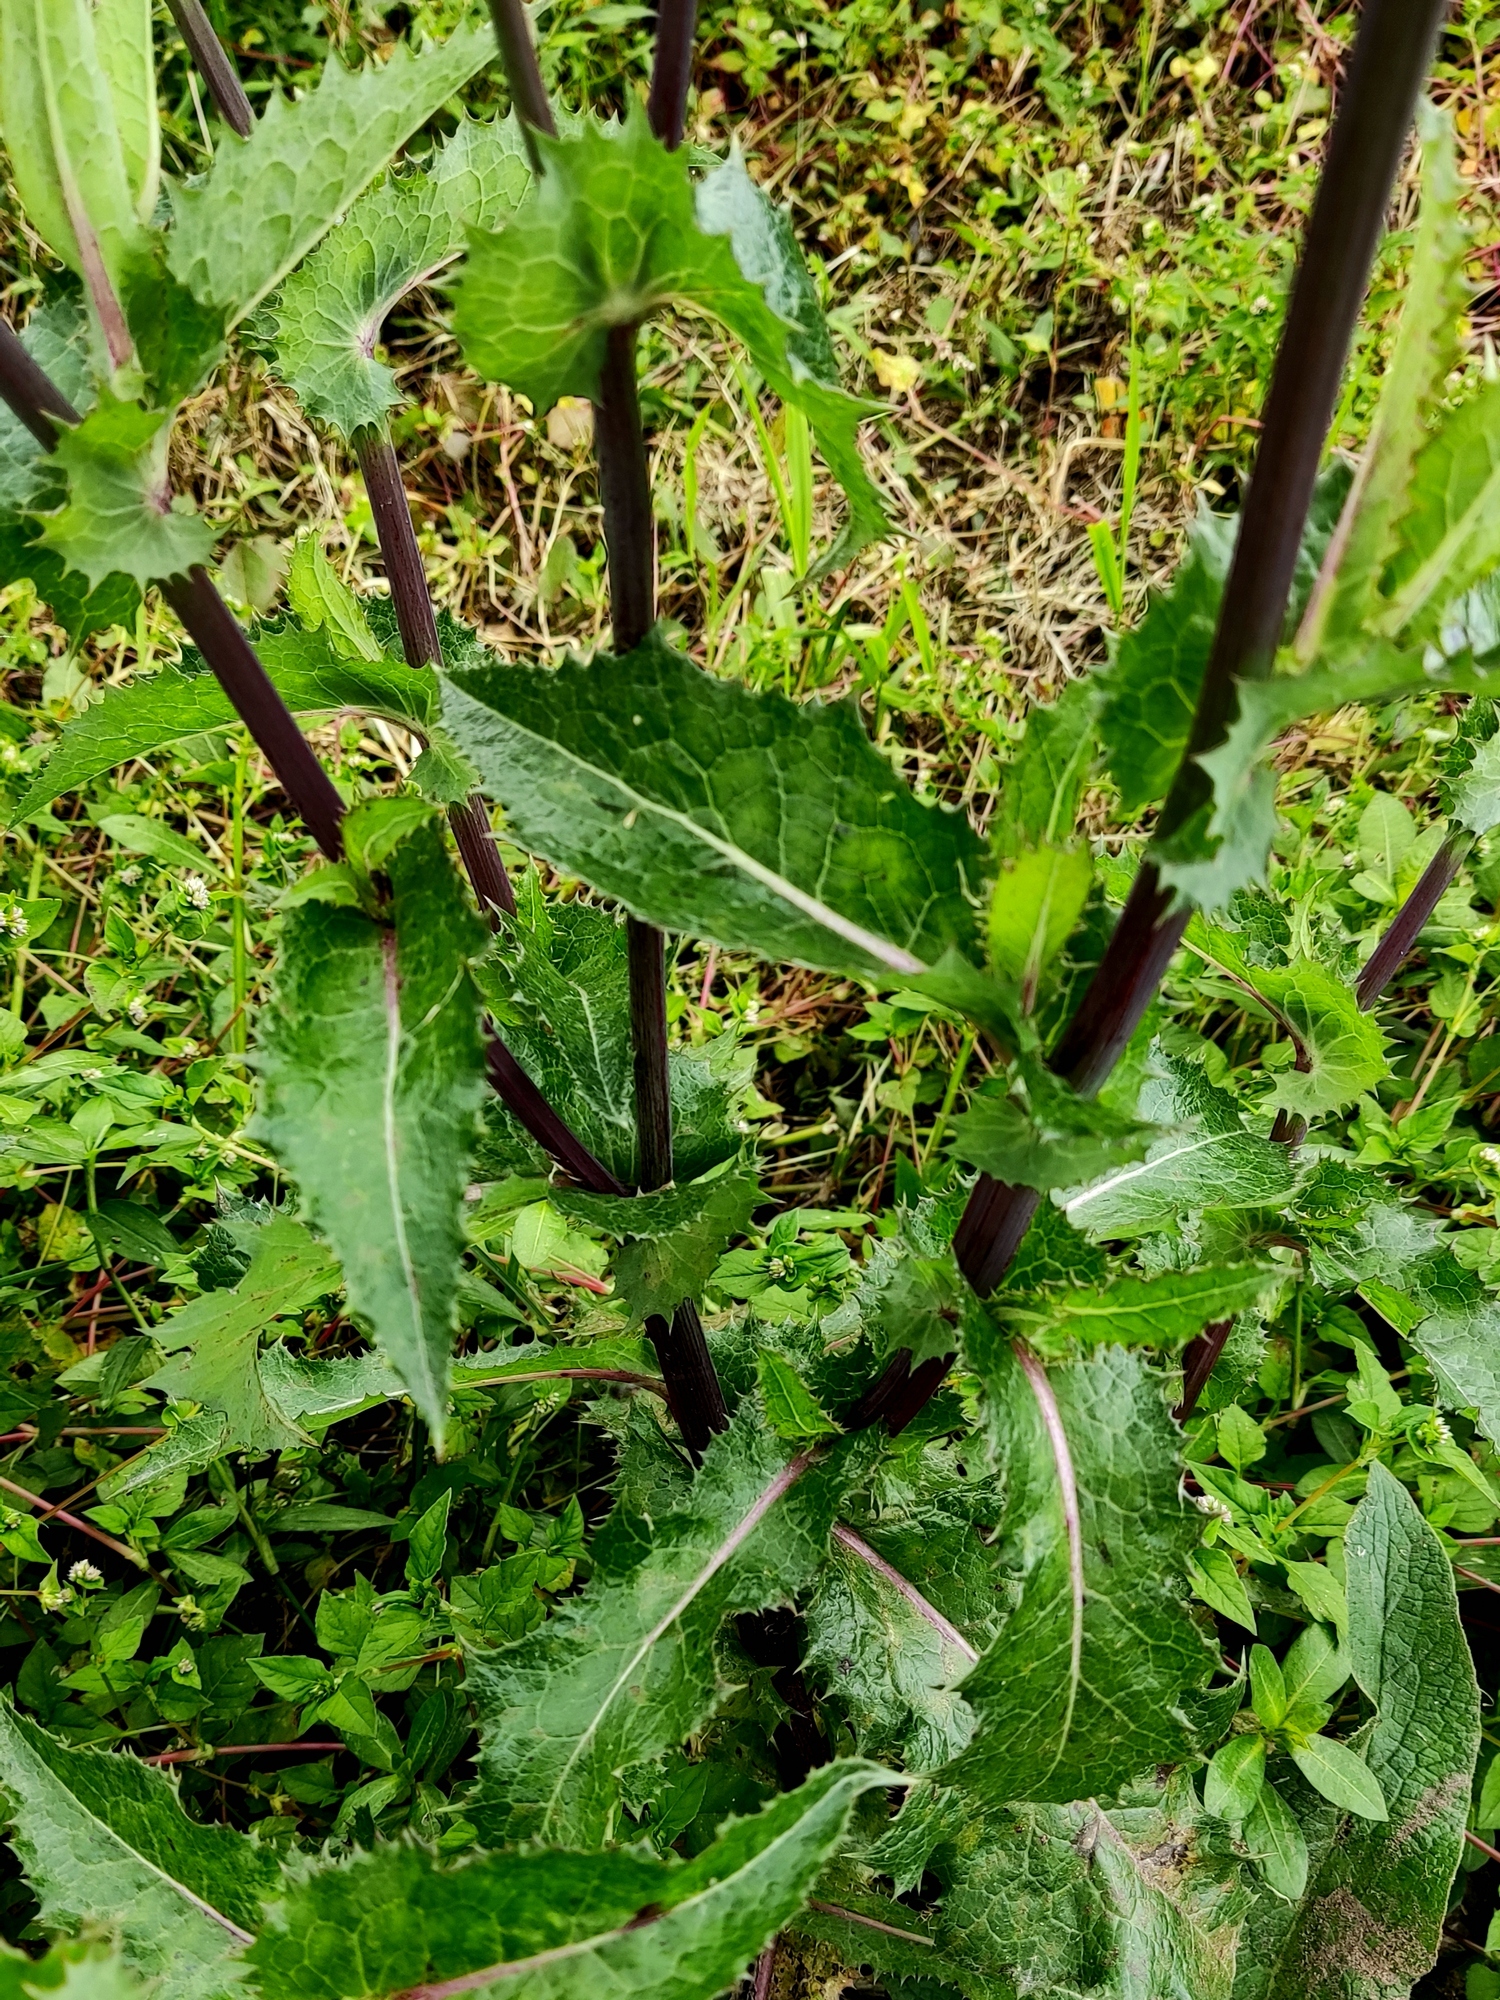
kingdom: Plantae
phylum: Tracheophyta
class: Magnoliopsida
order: Asterales
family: Asteraceae
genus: Sonchus
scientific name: Sonchus asper
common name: Prickly sow-thistle
